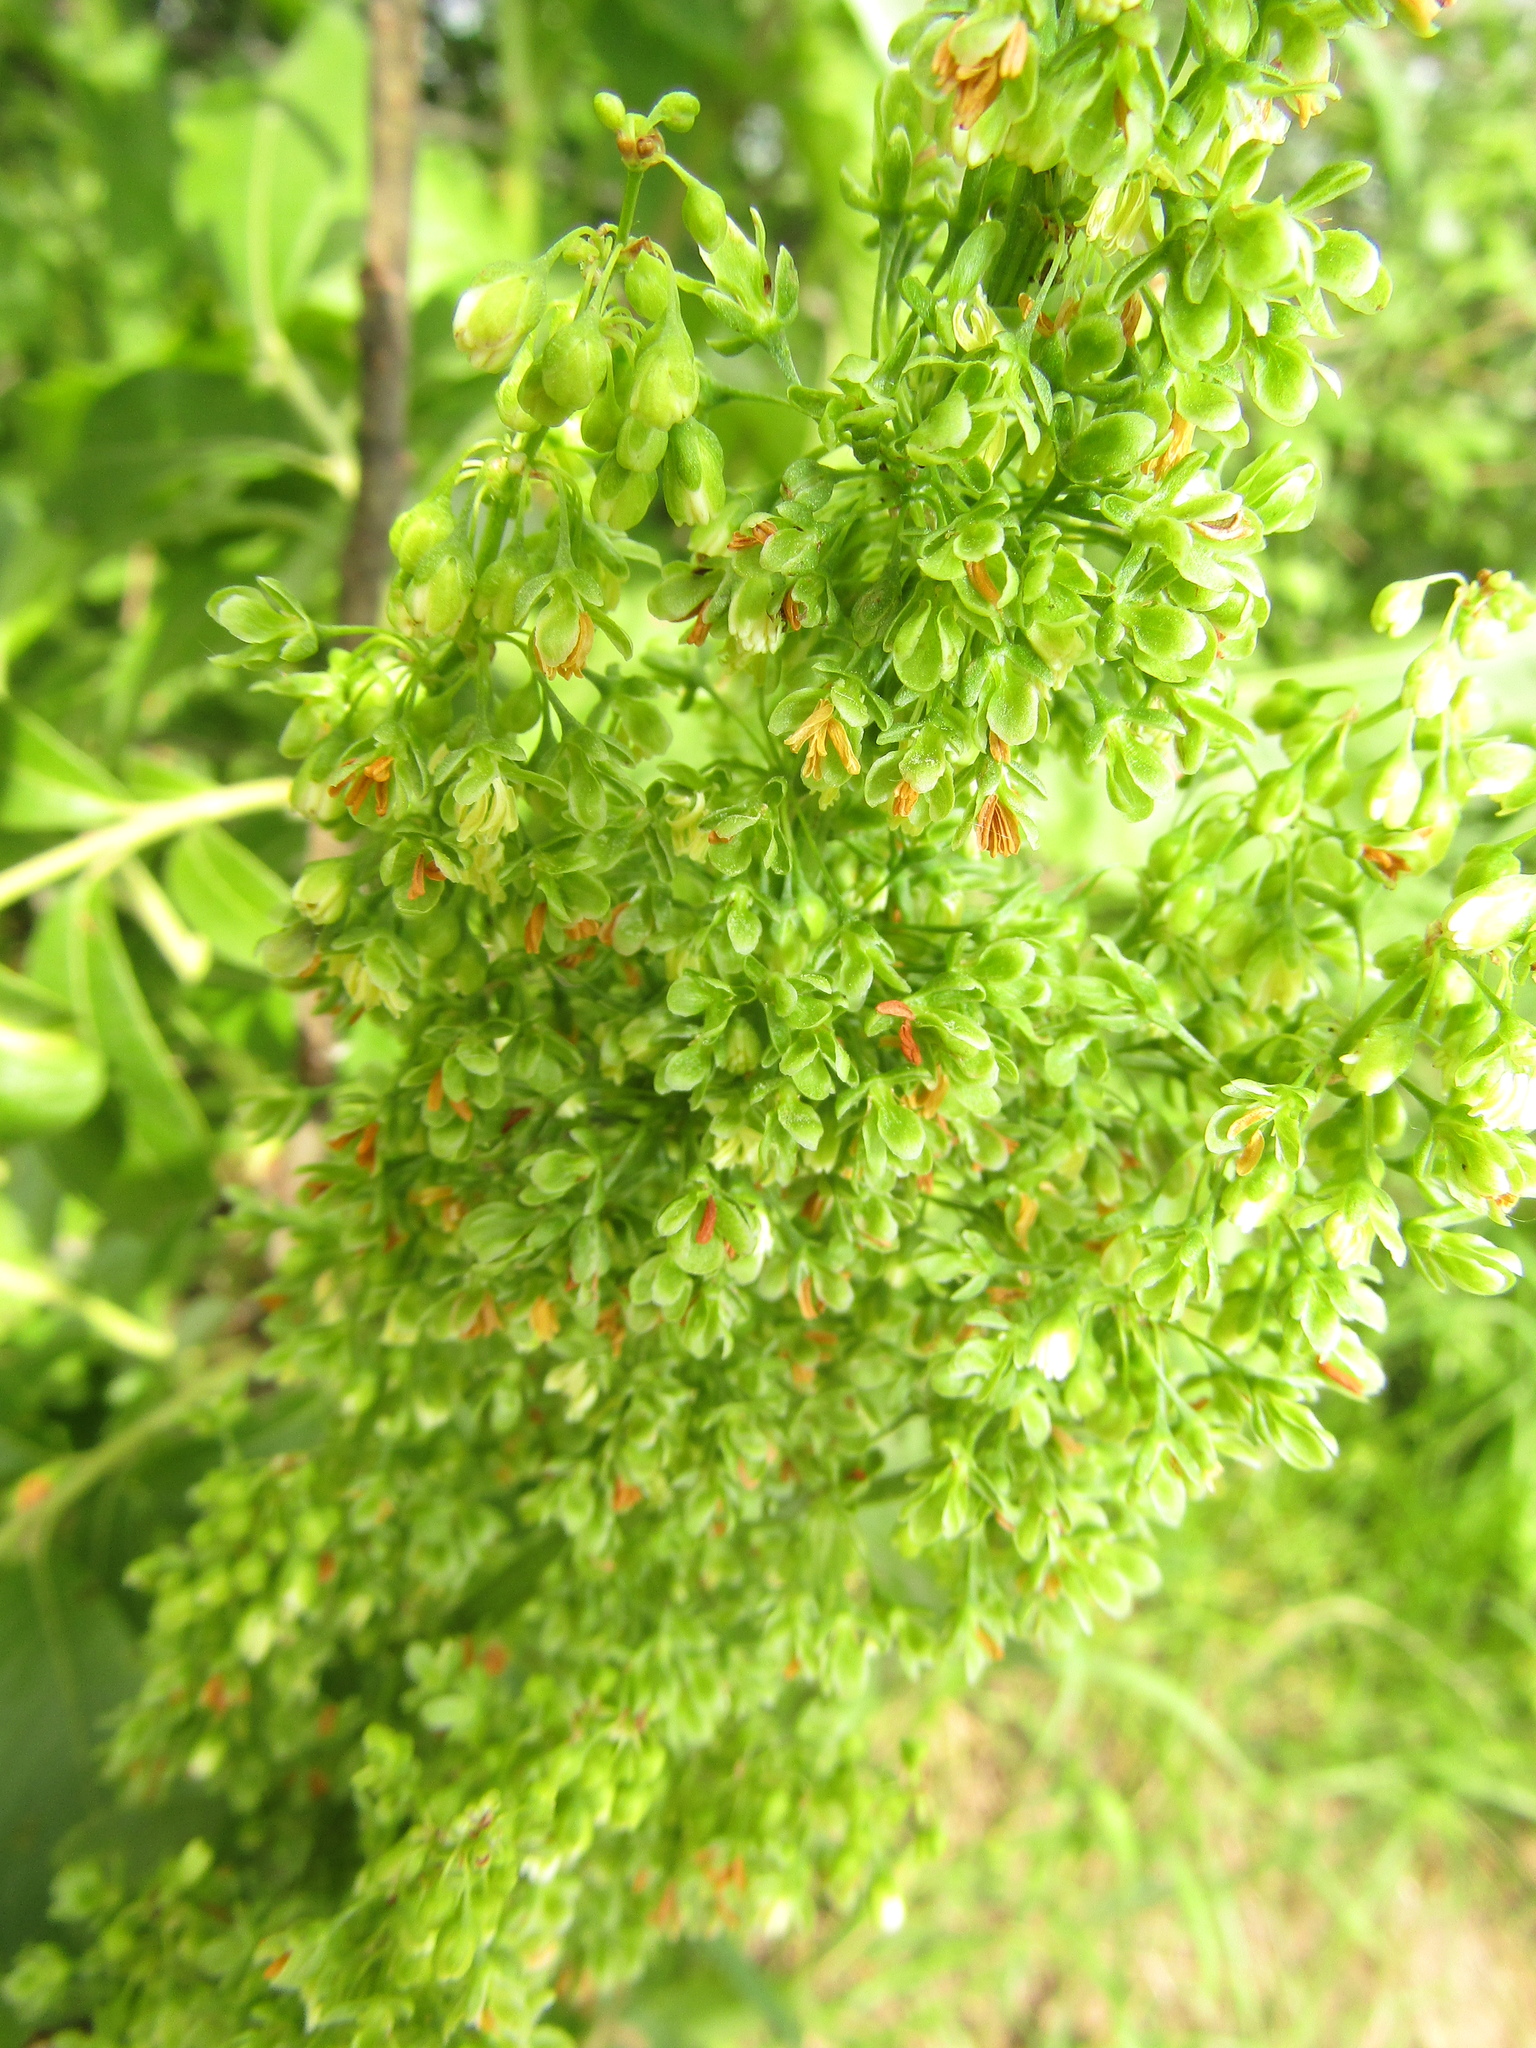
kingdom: Plantae
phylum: Tracheophyta
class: Magnoliopsida
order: Caryophyllales
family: Polygonaceae
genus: Rumex
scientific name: Rumex confertus
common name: Russian dock
